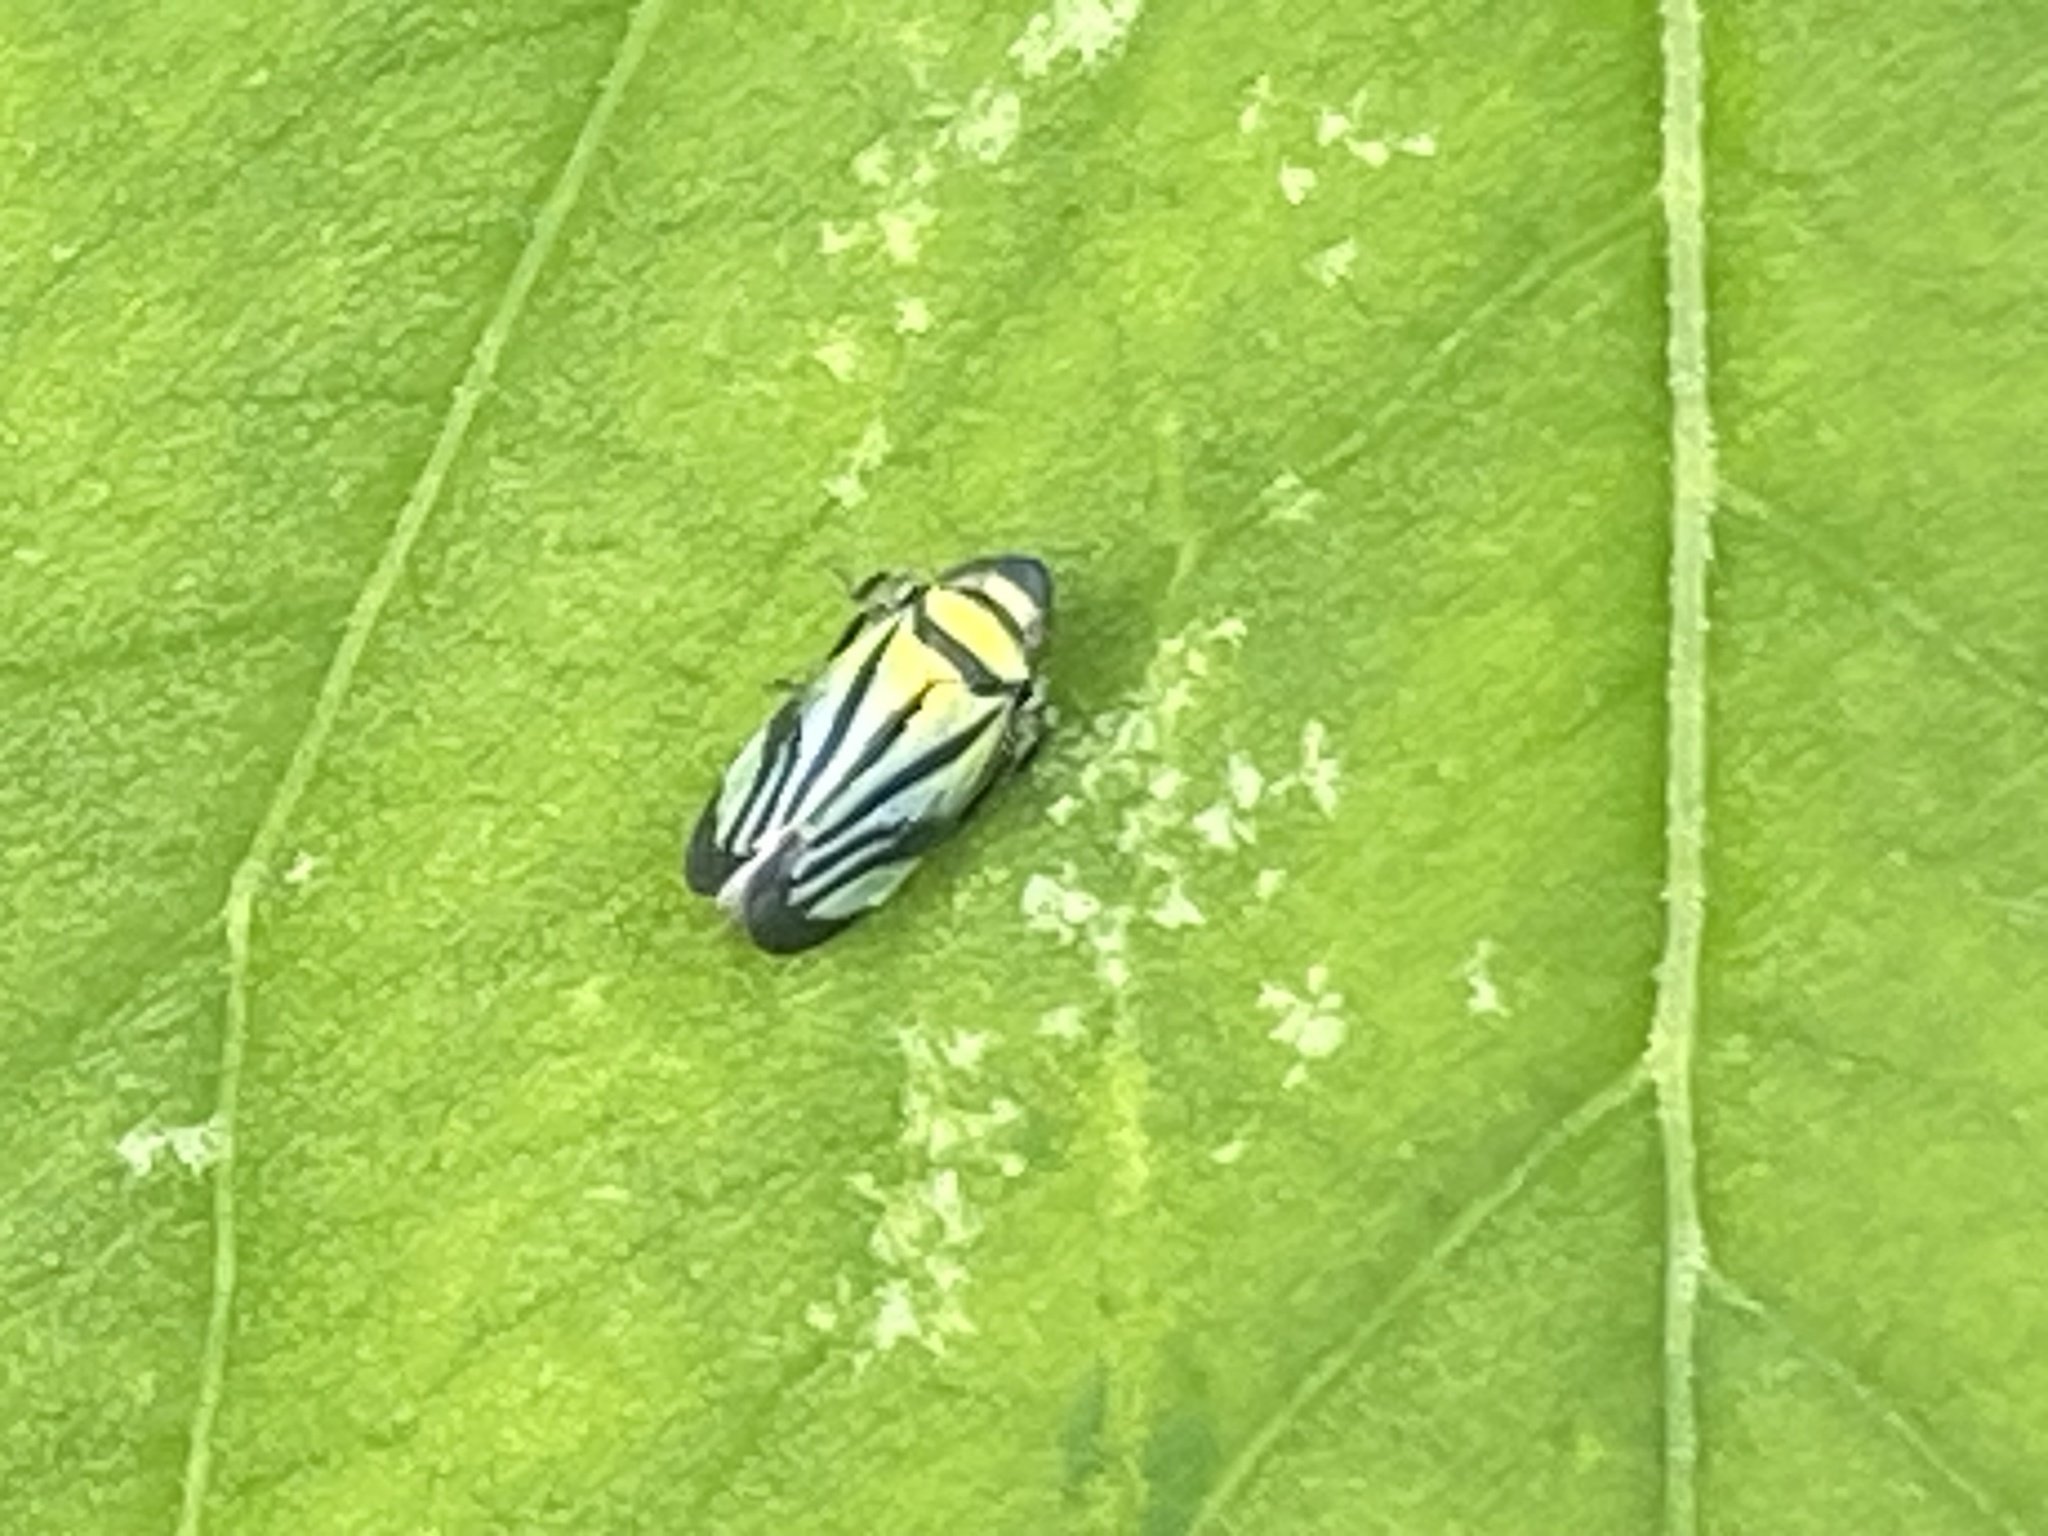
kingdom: Animalia
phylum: Arthropoda
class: Insecta
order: Hemiptera
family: Cicadellidae
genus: Stirellus
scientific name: Stirellus bicolor
